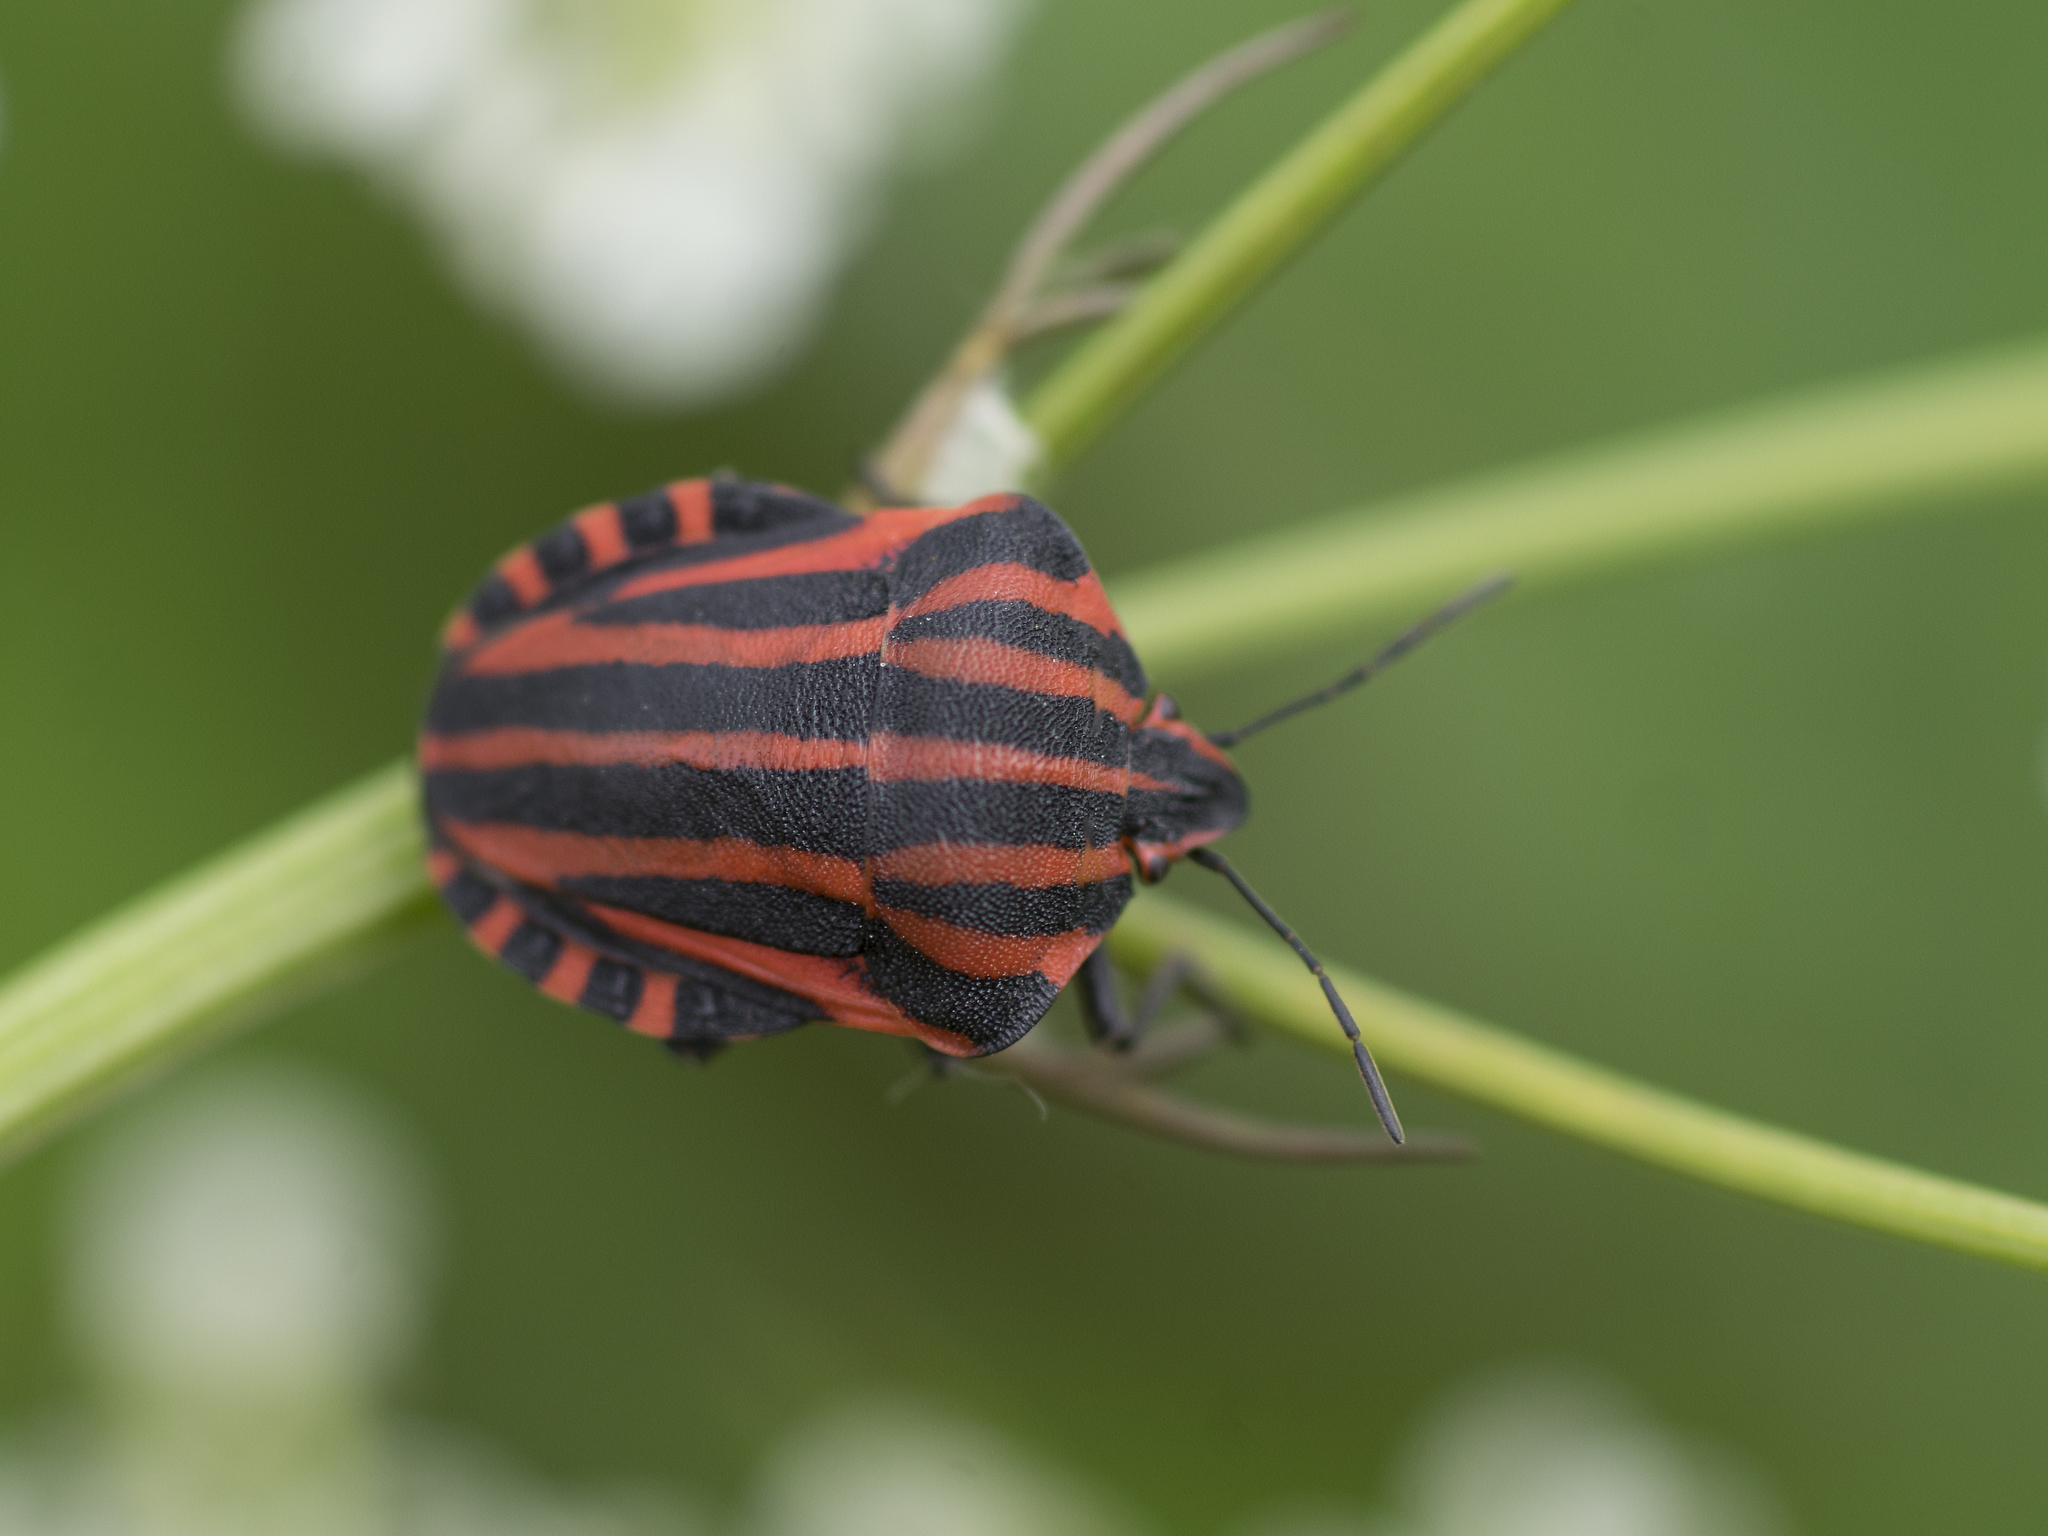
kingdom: Animalia
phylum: Arthropoda
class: Insecta
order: Hemiptera
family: Pentatomidae
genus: Graphosoma
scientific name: Graphosoma italicum
